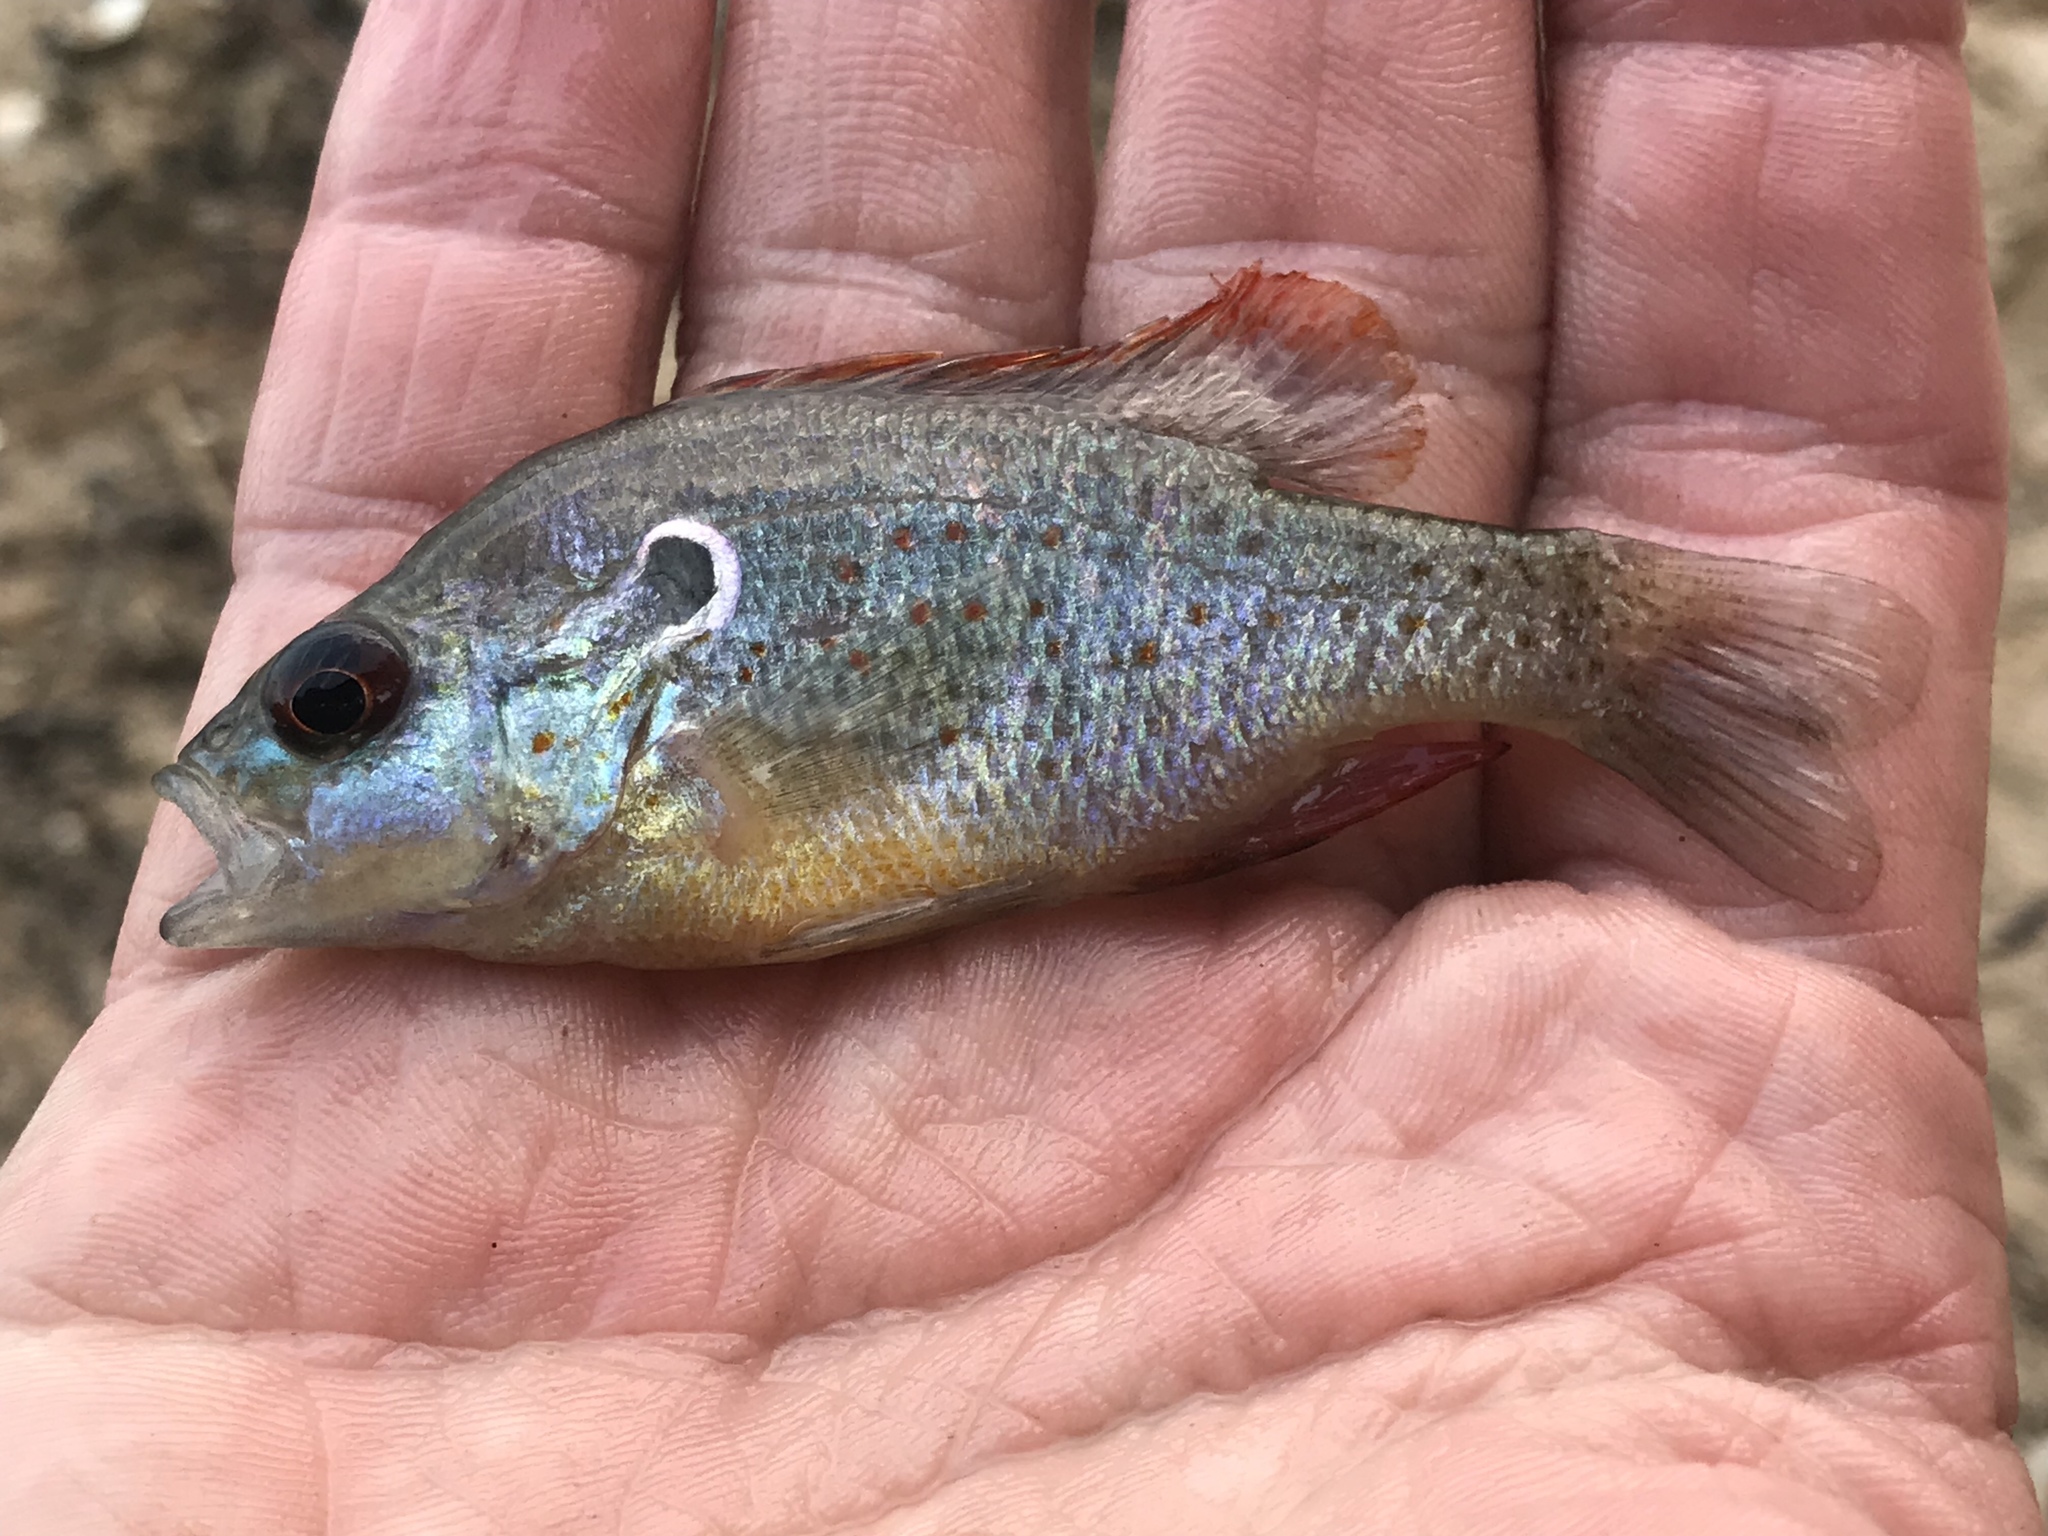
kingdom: Animalia
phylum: Chordata
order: Perciformes
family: Centrarchidae
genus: Lepomis
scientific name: Lepomis humilis
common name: Orangespotted sunfish
